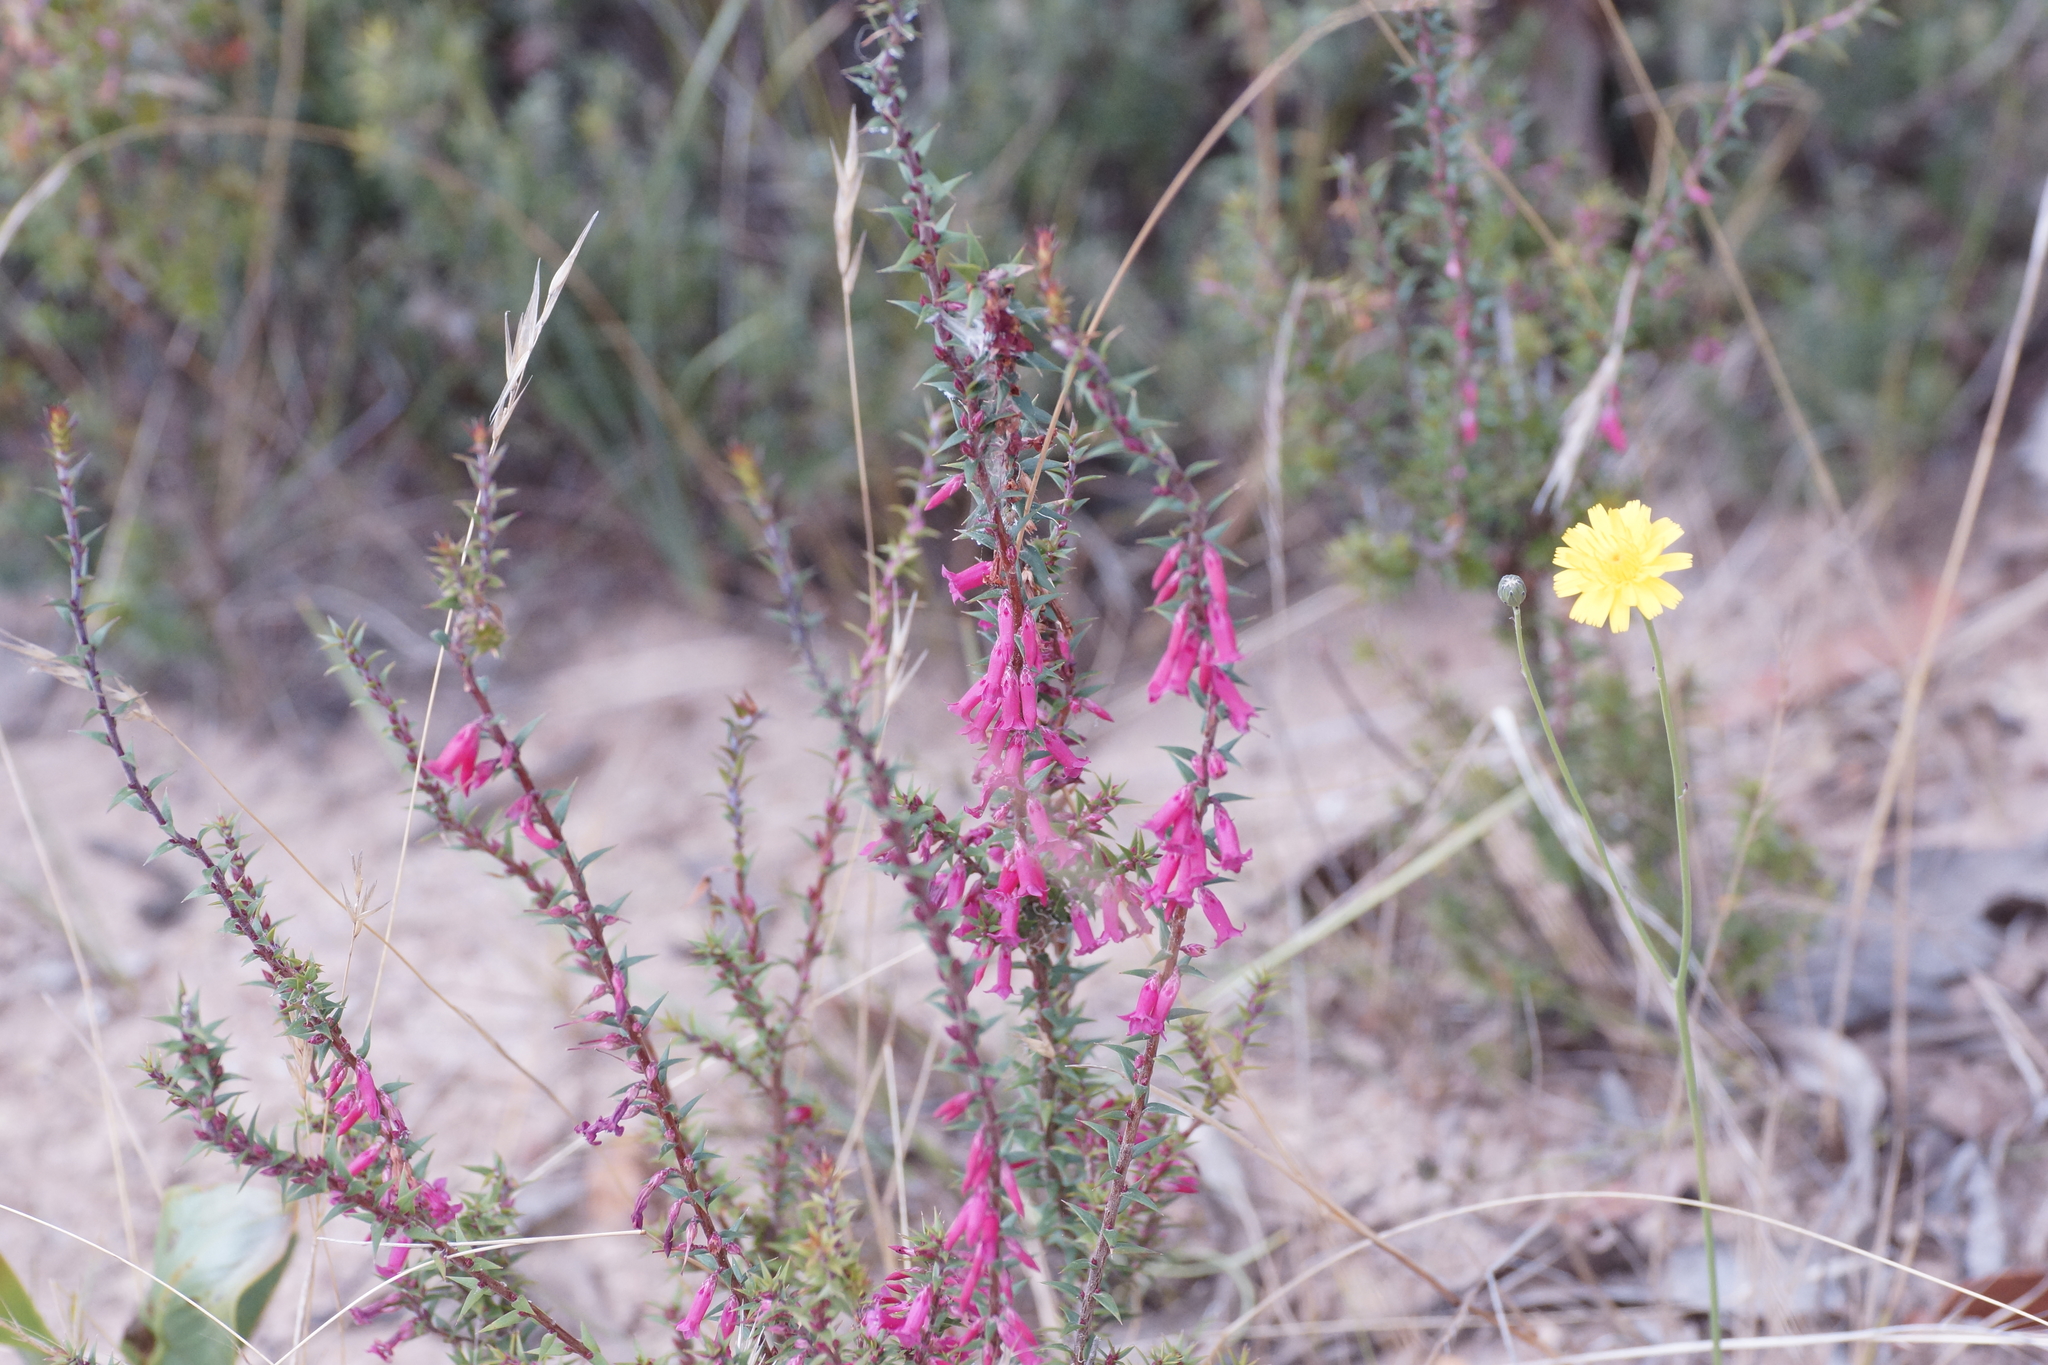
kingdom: Plantae
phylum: Tracheophyta
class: Magnoliopsida
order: Ericales
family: Ericaceae
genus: Epacris
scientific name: Epacris impressa
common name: Common-heath
